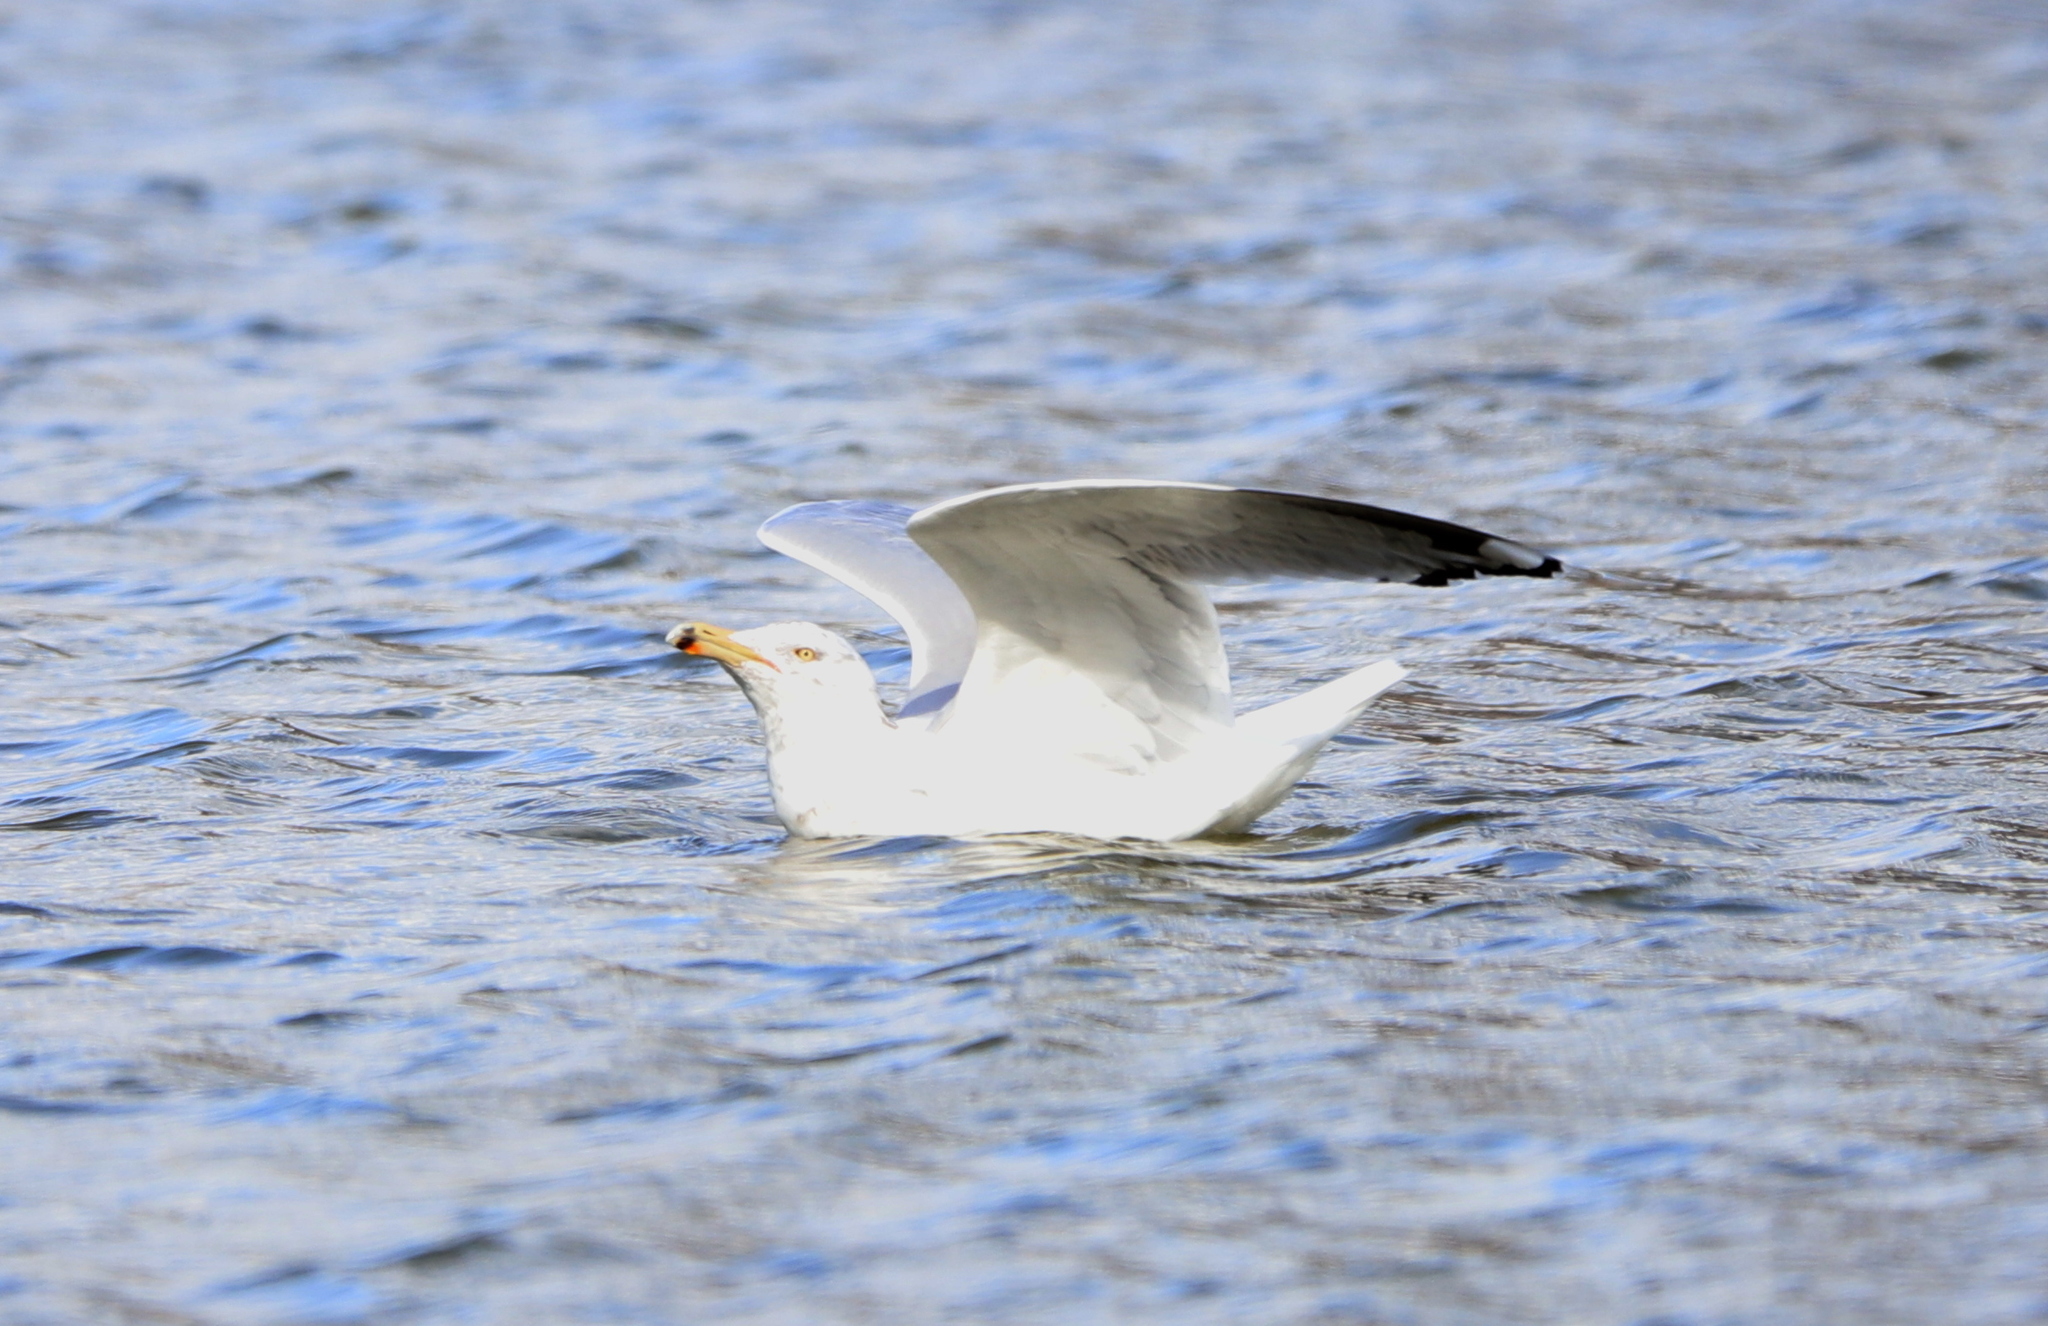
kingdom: Animalia
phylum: Chordata
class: Aves
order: Charadriiformes
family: Laridae
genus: Larus
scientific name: Larus delawarensis
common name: Ring-billed gull
